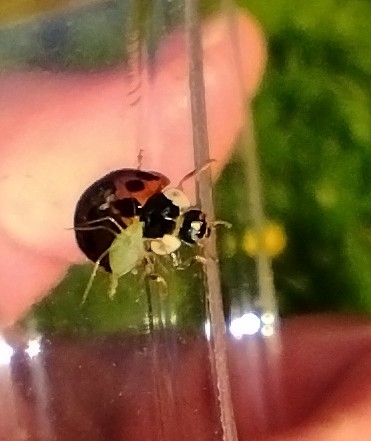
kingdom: Animalia
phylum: Arthropoda
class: Insecta
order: Coleoptera
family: Coccinellidae
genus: Harmonia
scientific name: Harmonia axyridis
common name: Harlequin ladybird
